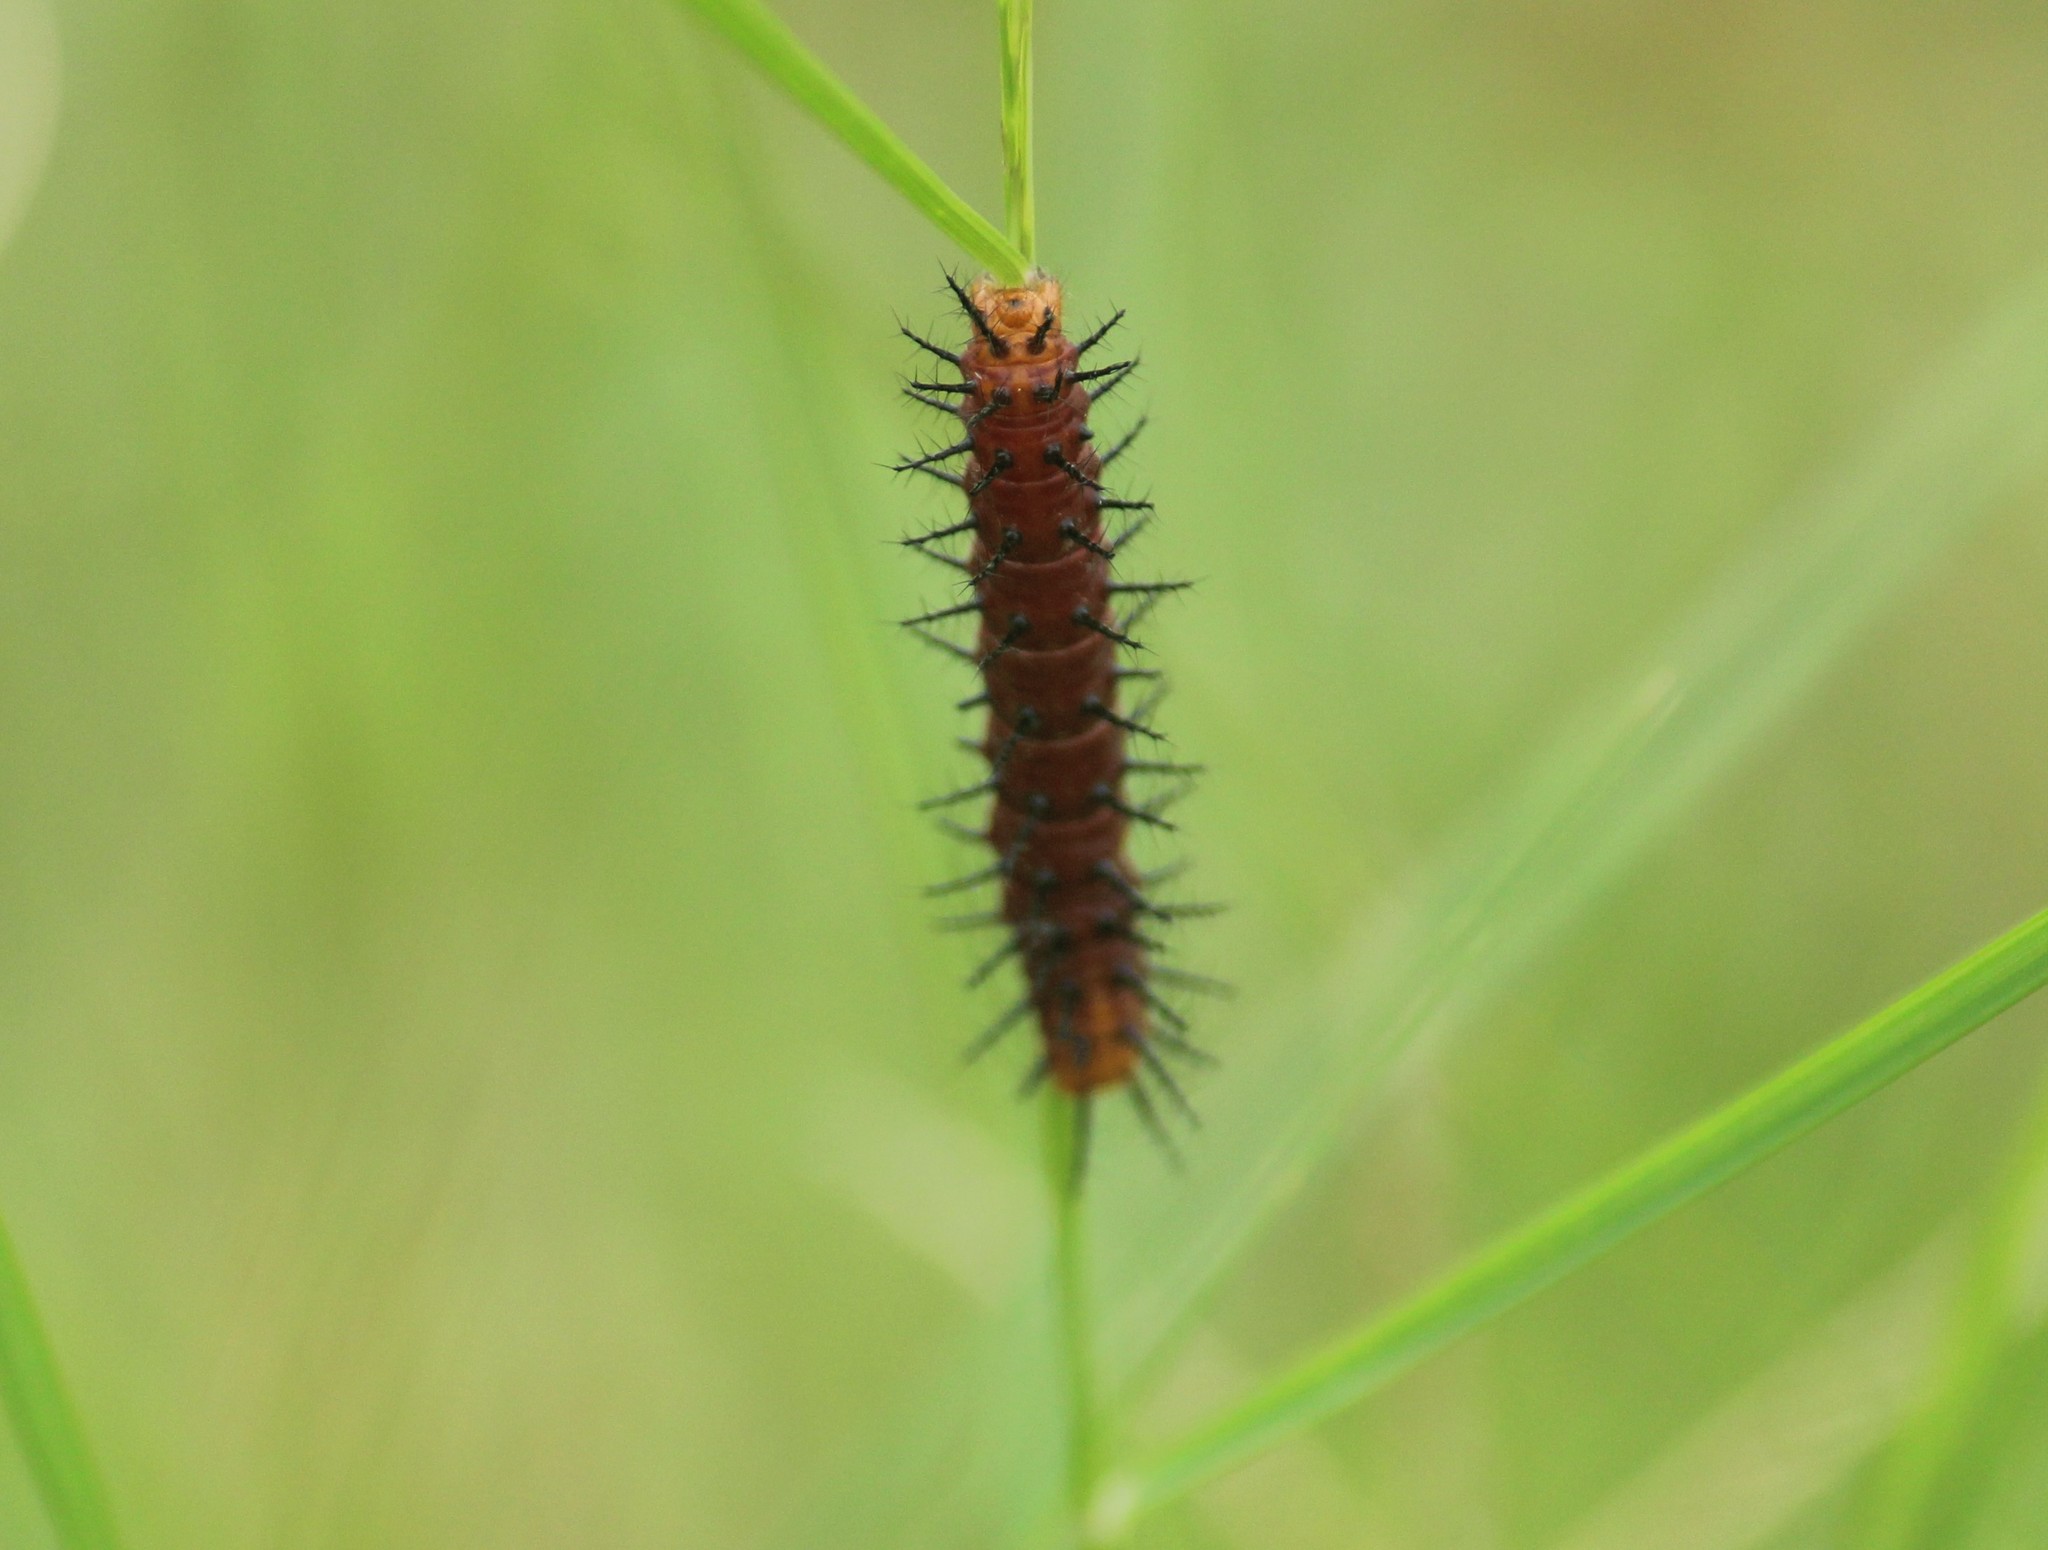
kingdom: Animalia
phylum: Arthropoda
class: Insecta
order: Lepidoptera
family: Nymphalidae
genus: Acraea
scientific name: Acraea terpsicore
